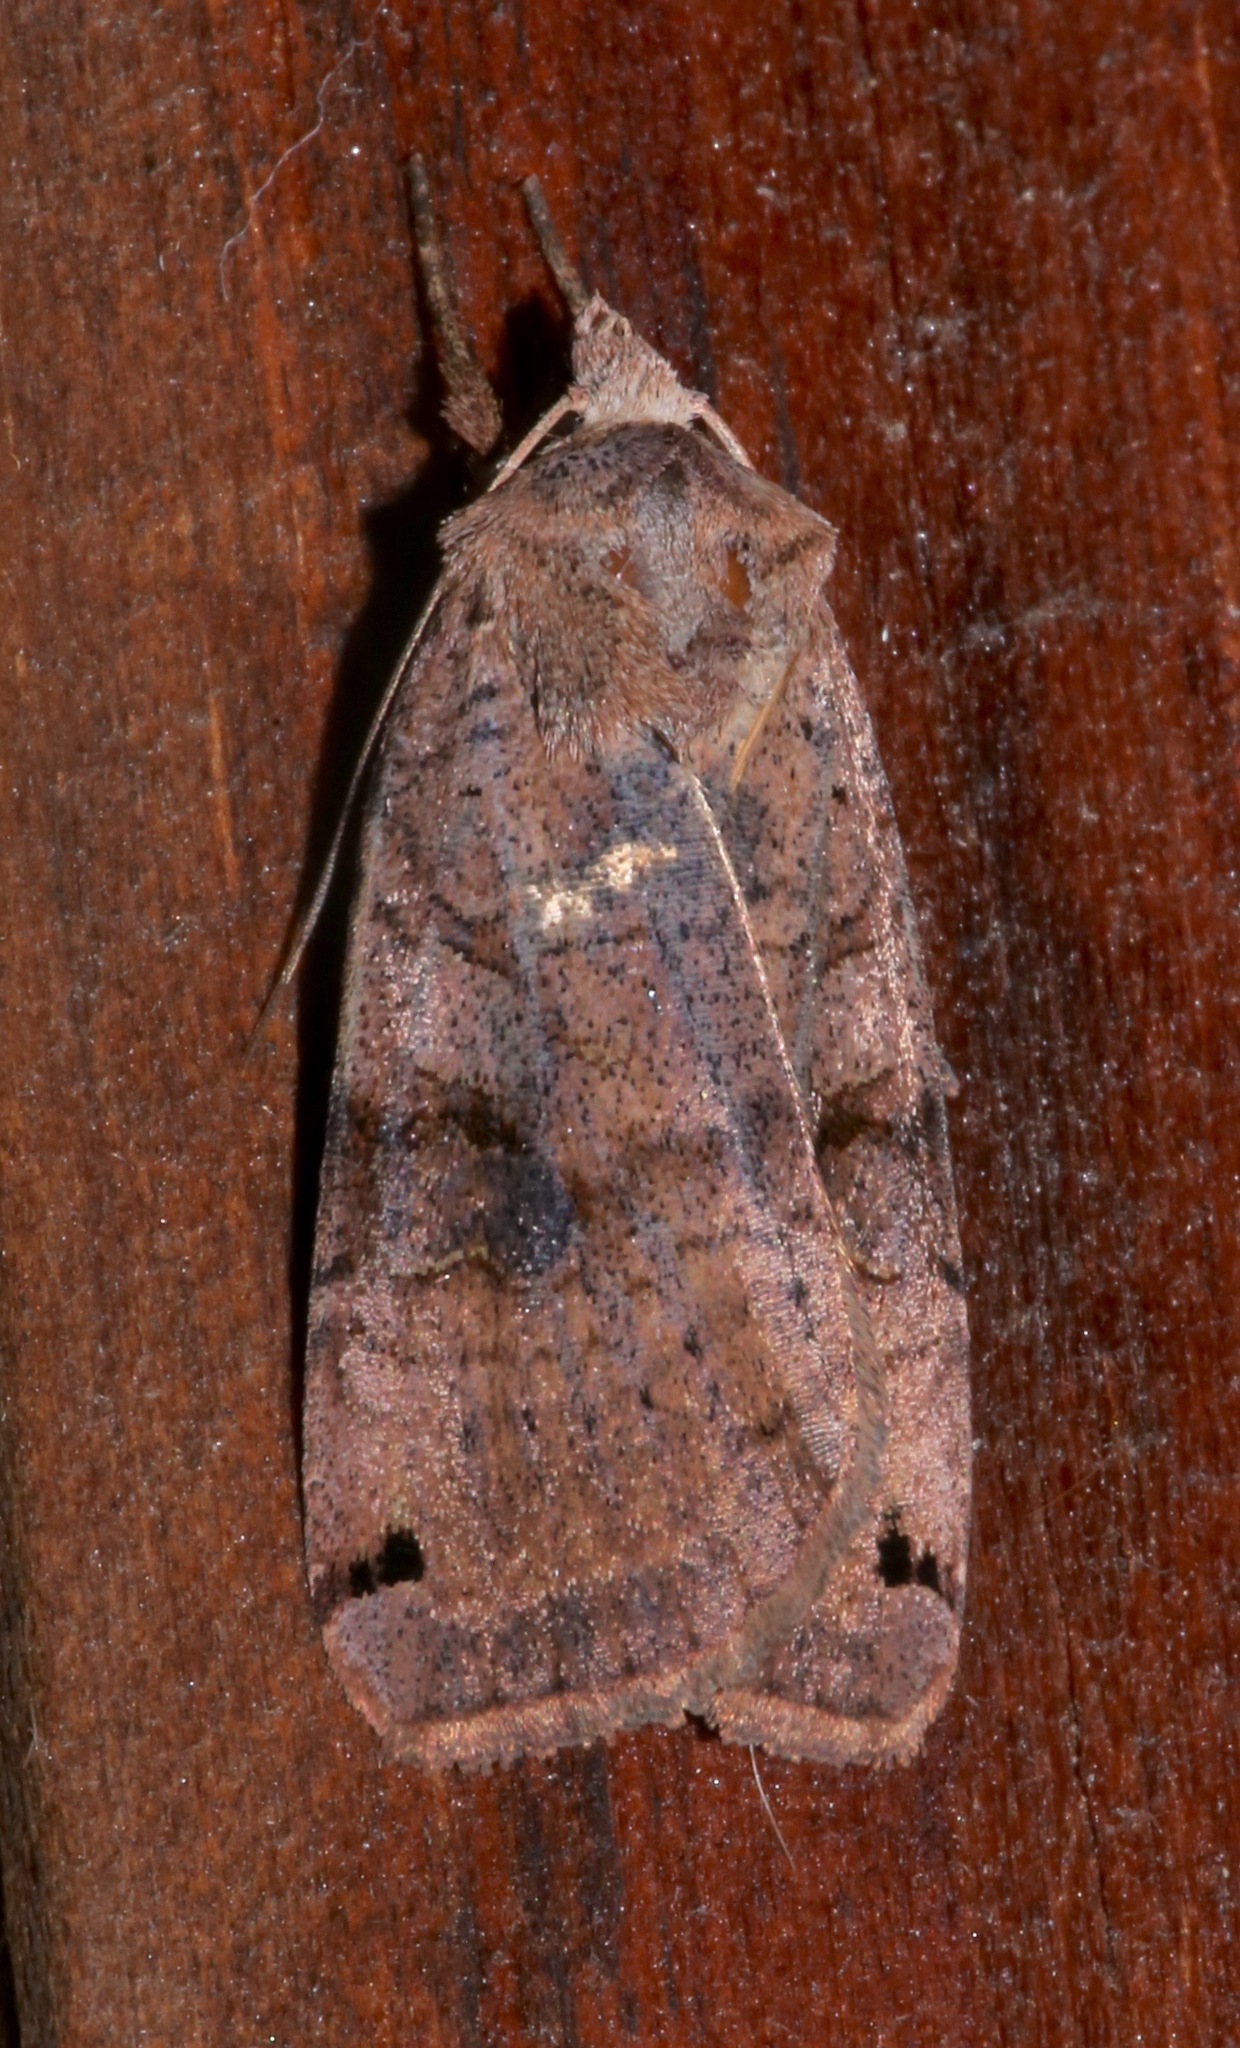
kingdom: Animalia
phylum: Arthropoda
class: Insecta
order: Lepidoptera
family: Noctuidae
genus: Noctua
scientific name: Noctua pronuba
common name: Large yellow underwing
